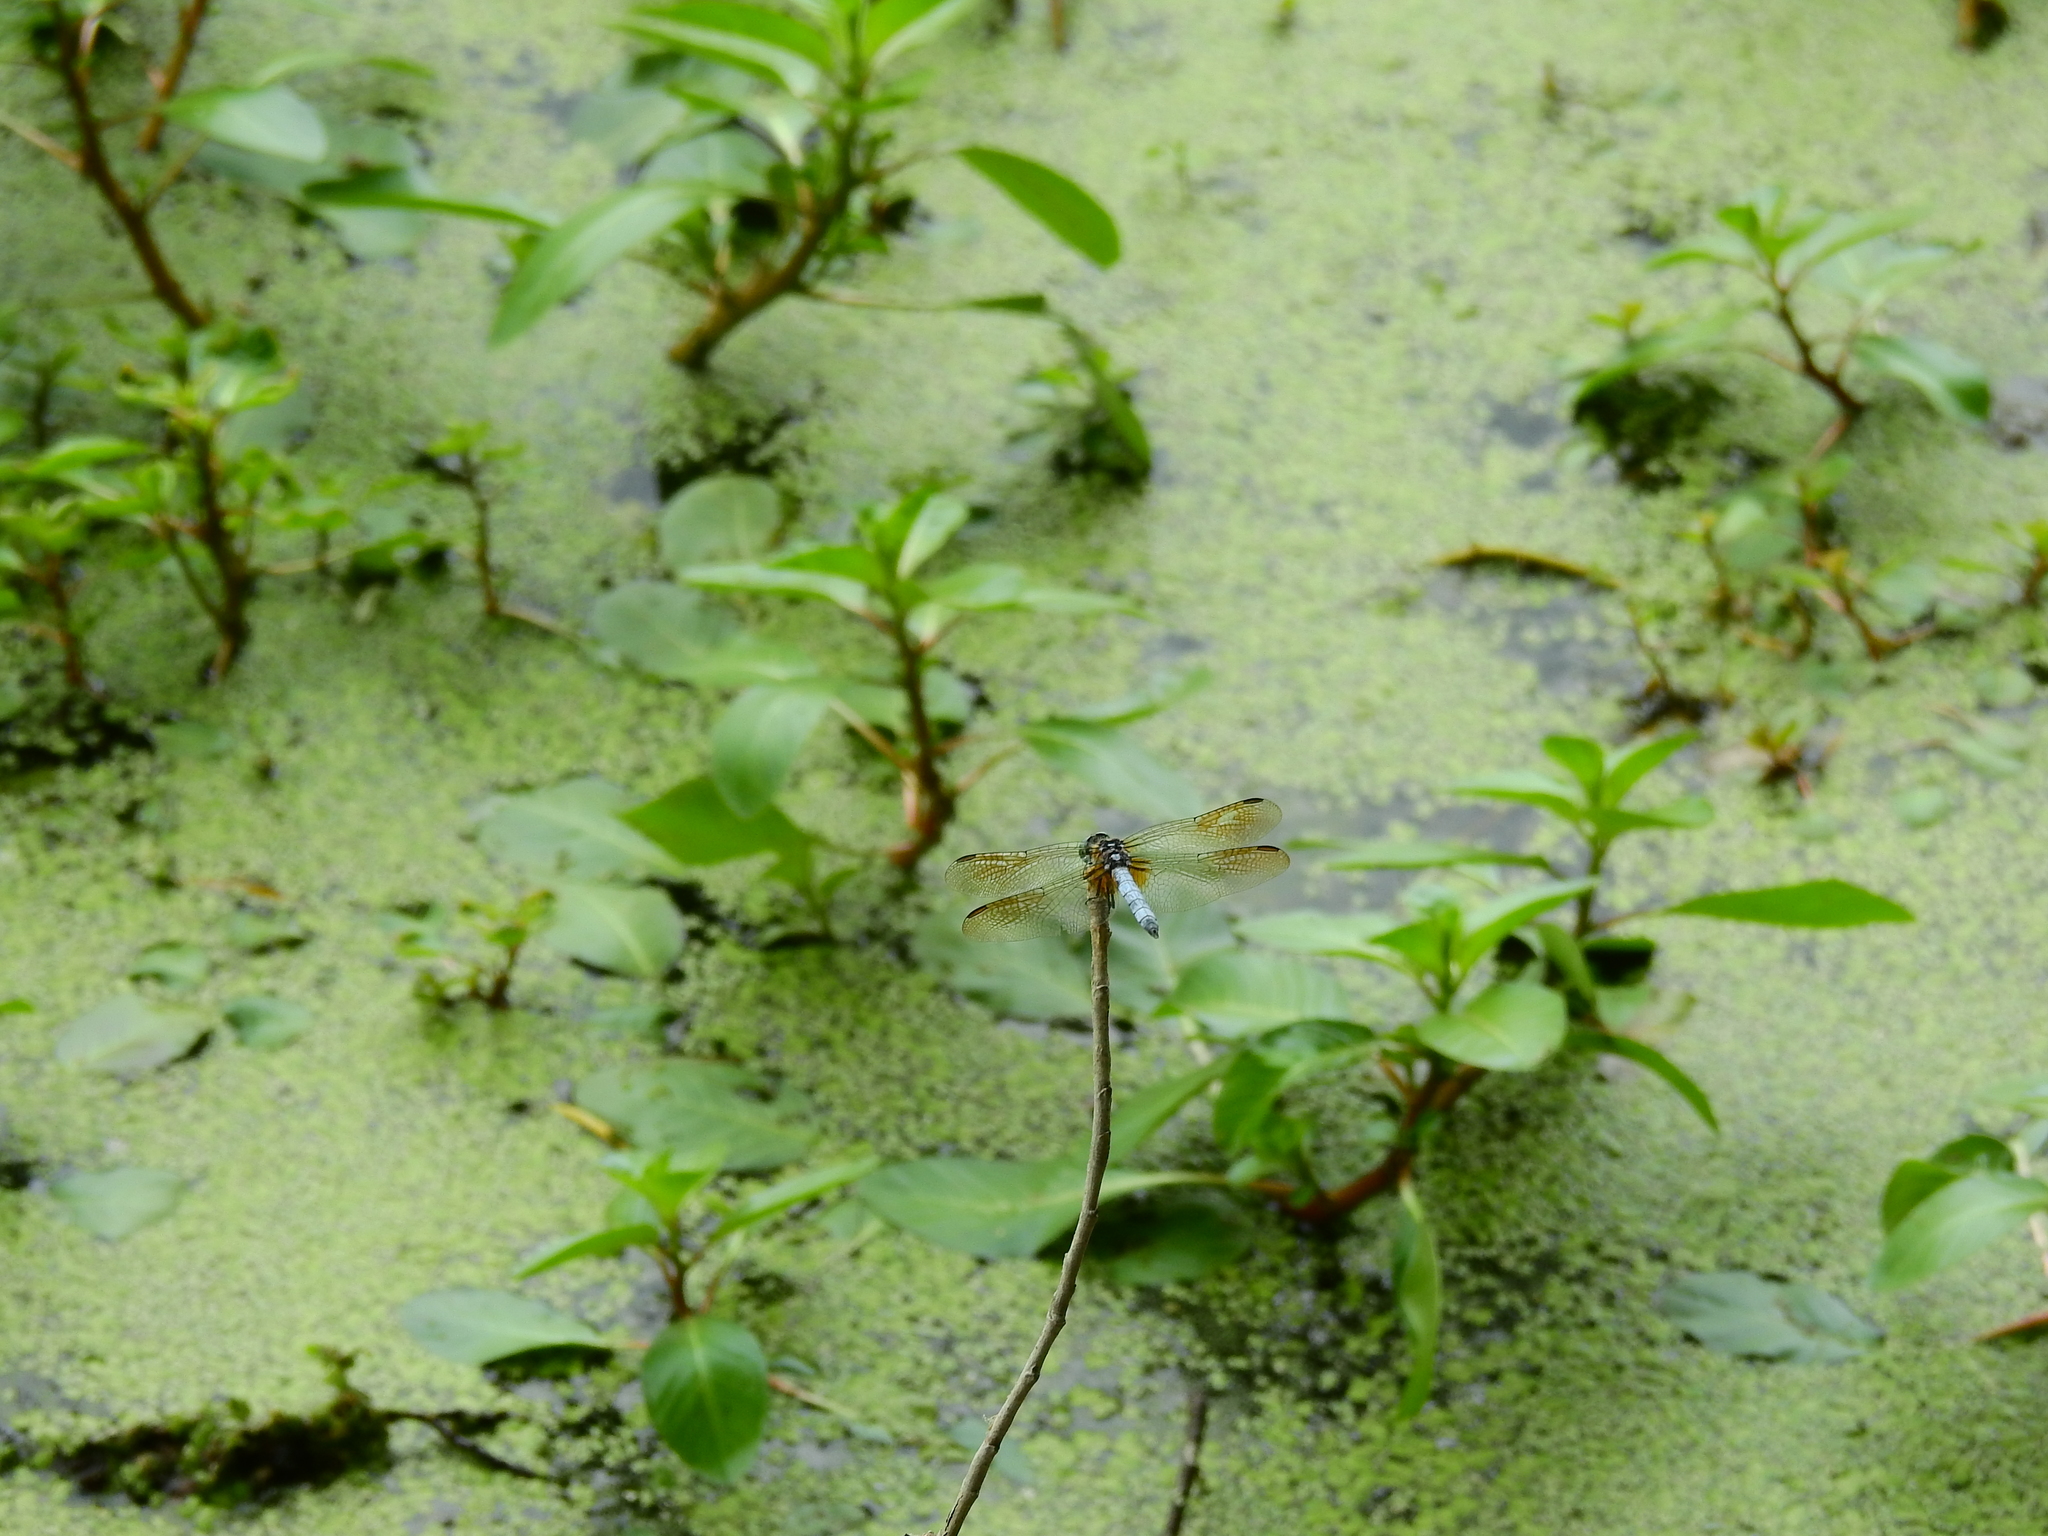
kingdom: Animalia
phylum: Arthropoda
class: Insecta
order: Odonata
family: Libellulidae
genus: Pachydiplax
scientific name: Pachydiplax longipennis
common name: Blue dasher
